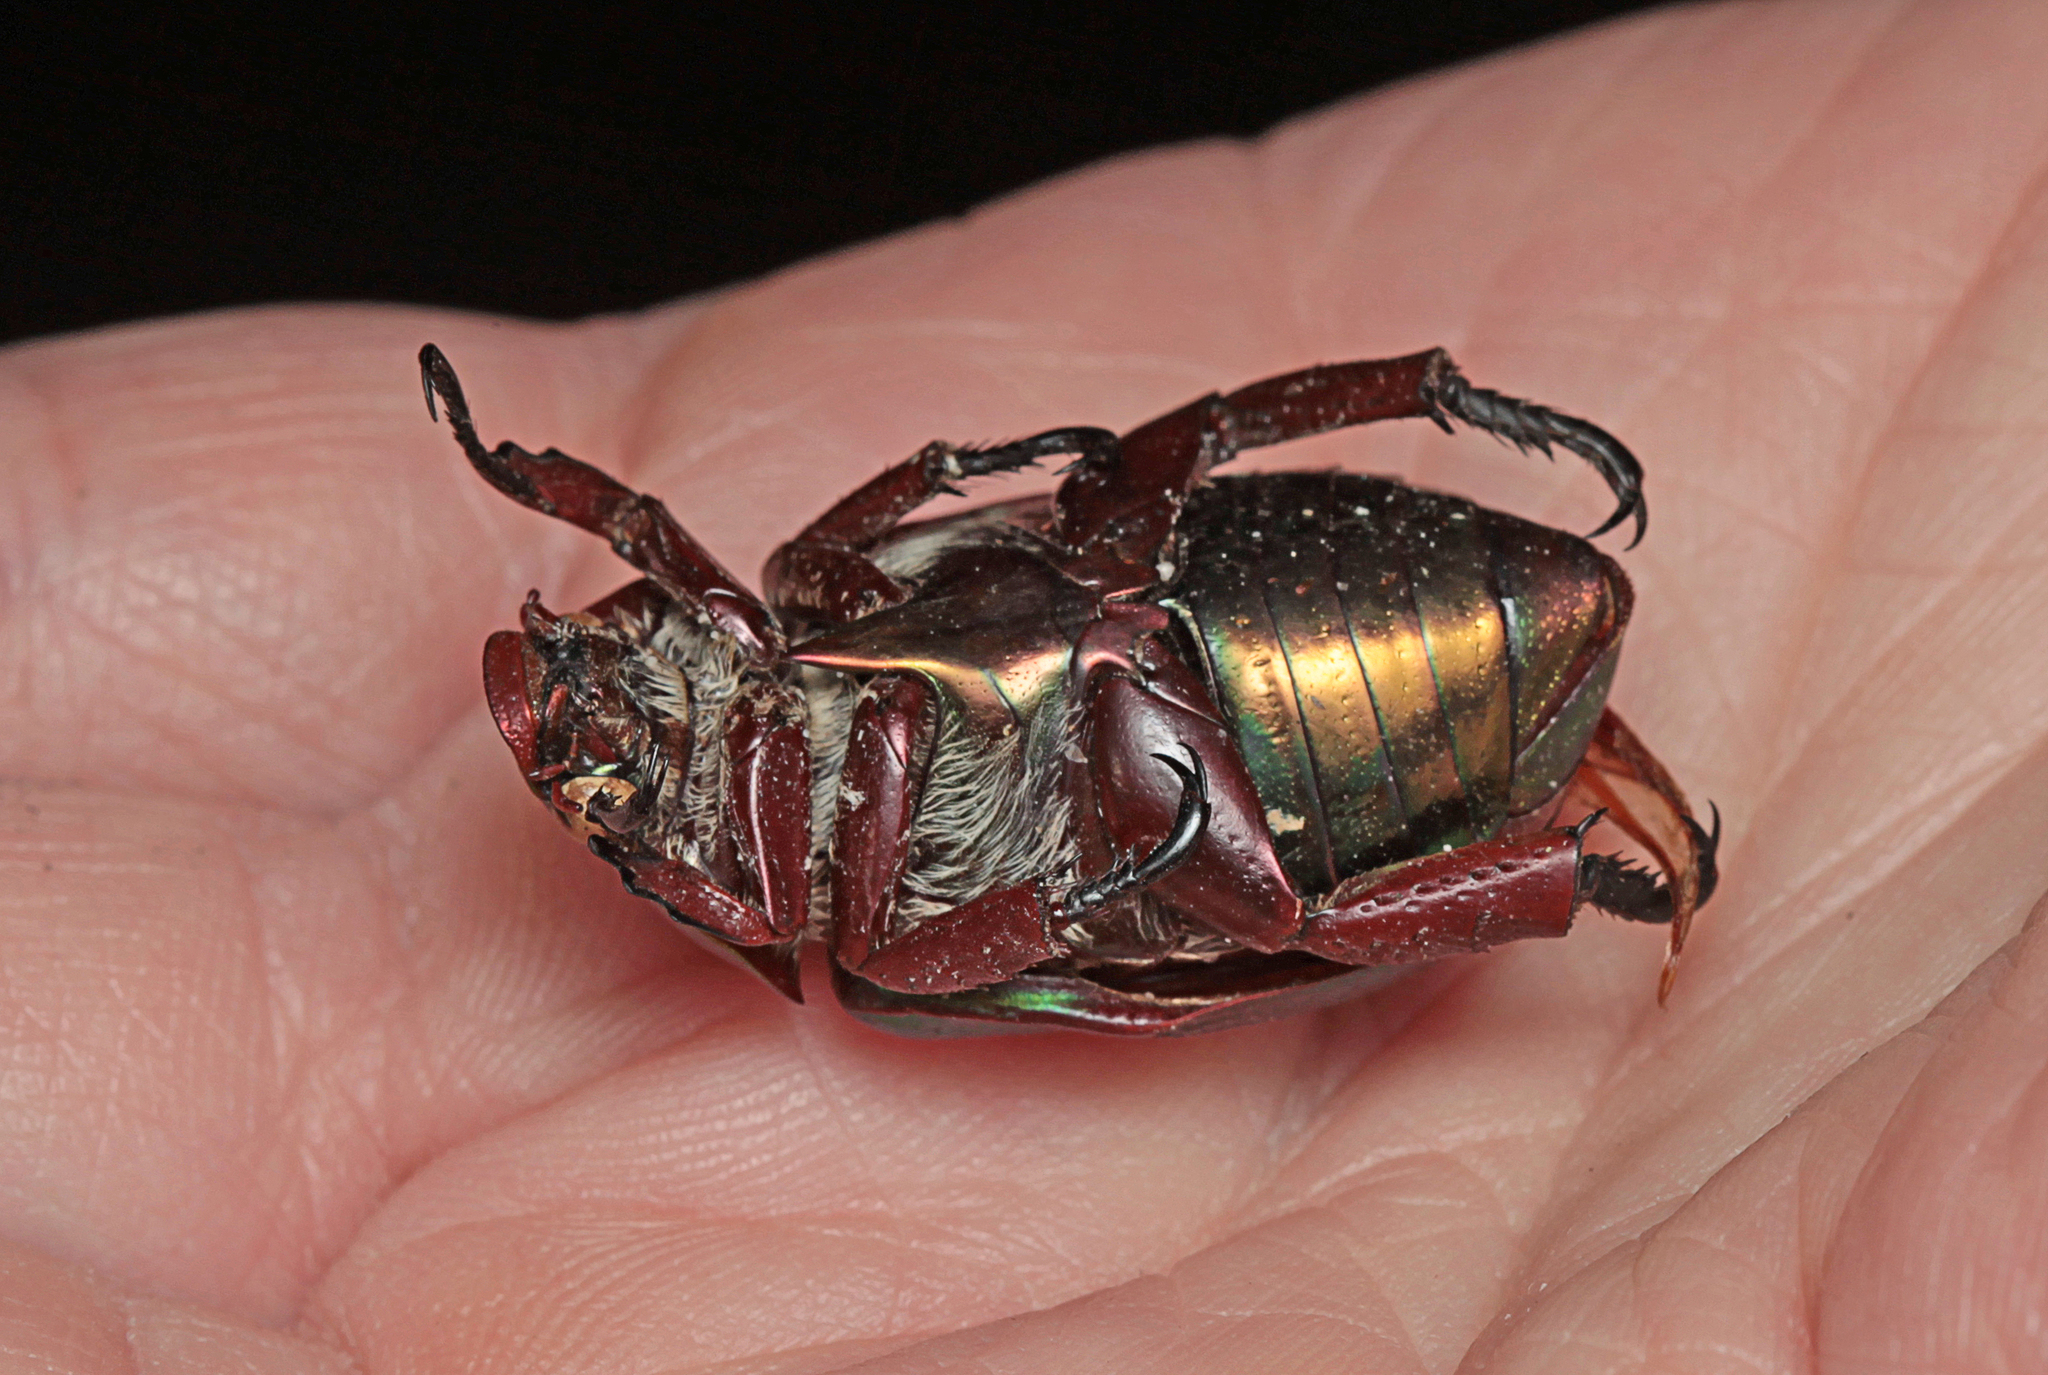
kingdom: Animalia
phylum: Arthropoda
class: Insecta
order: Coleoptera
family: Scarabaeidae
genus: Anoplognathus
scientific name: Anoplognathus viridiaeneus
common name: King christmas beetle
